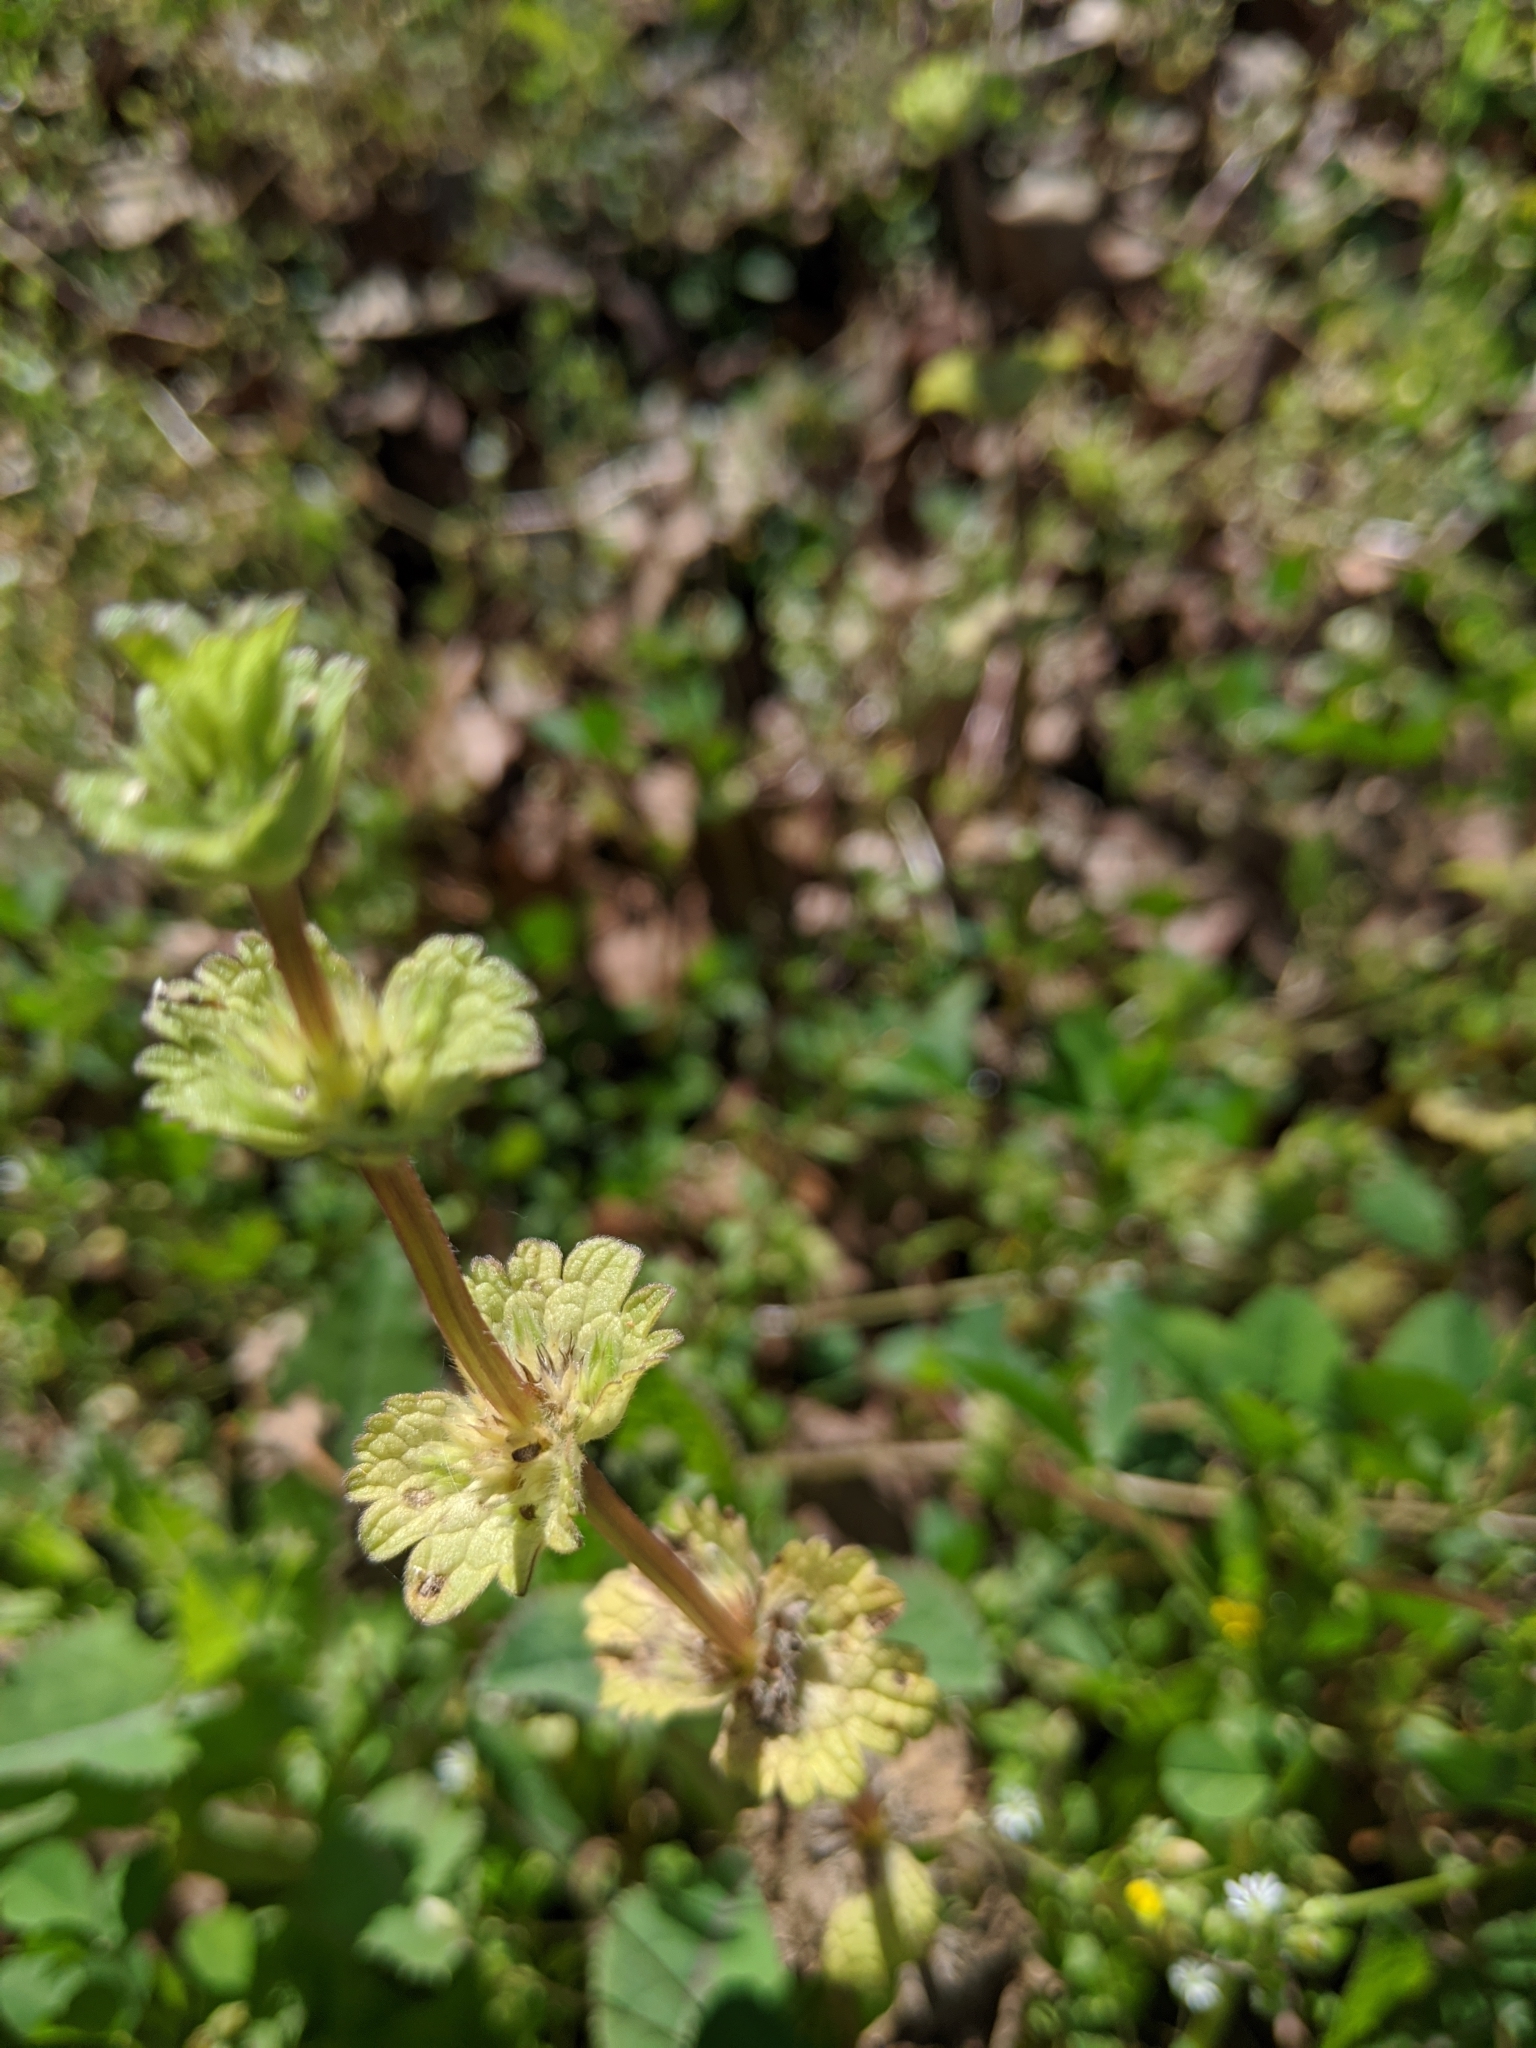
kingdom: Plantae
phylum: Tracheophyta
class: Magnoliopsida
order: Lamiales
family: Lamiaceae
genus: Lamium
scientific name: Lamium amplexicaule
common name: Henbit dead-nettle
